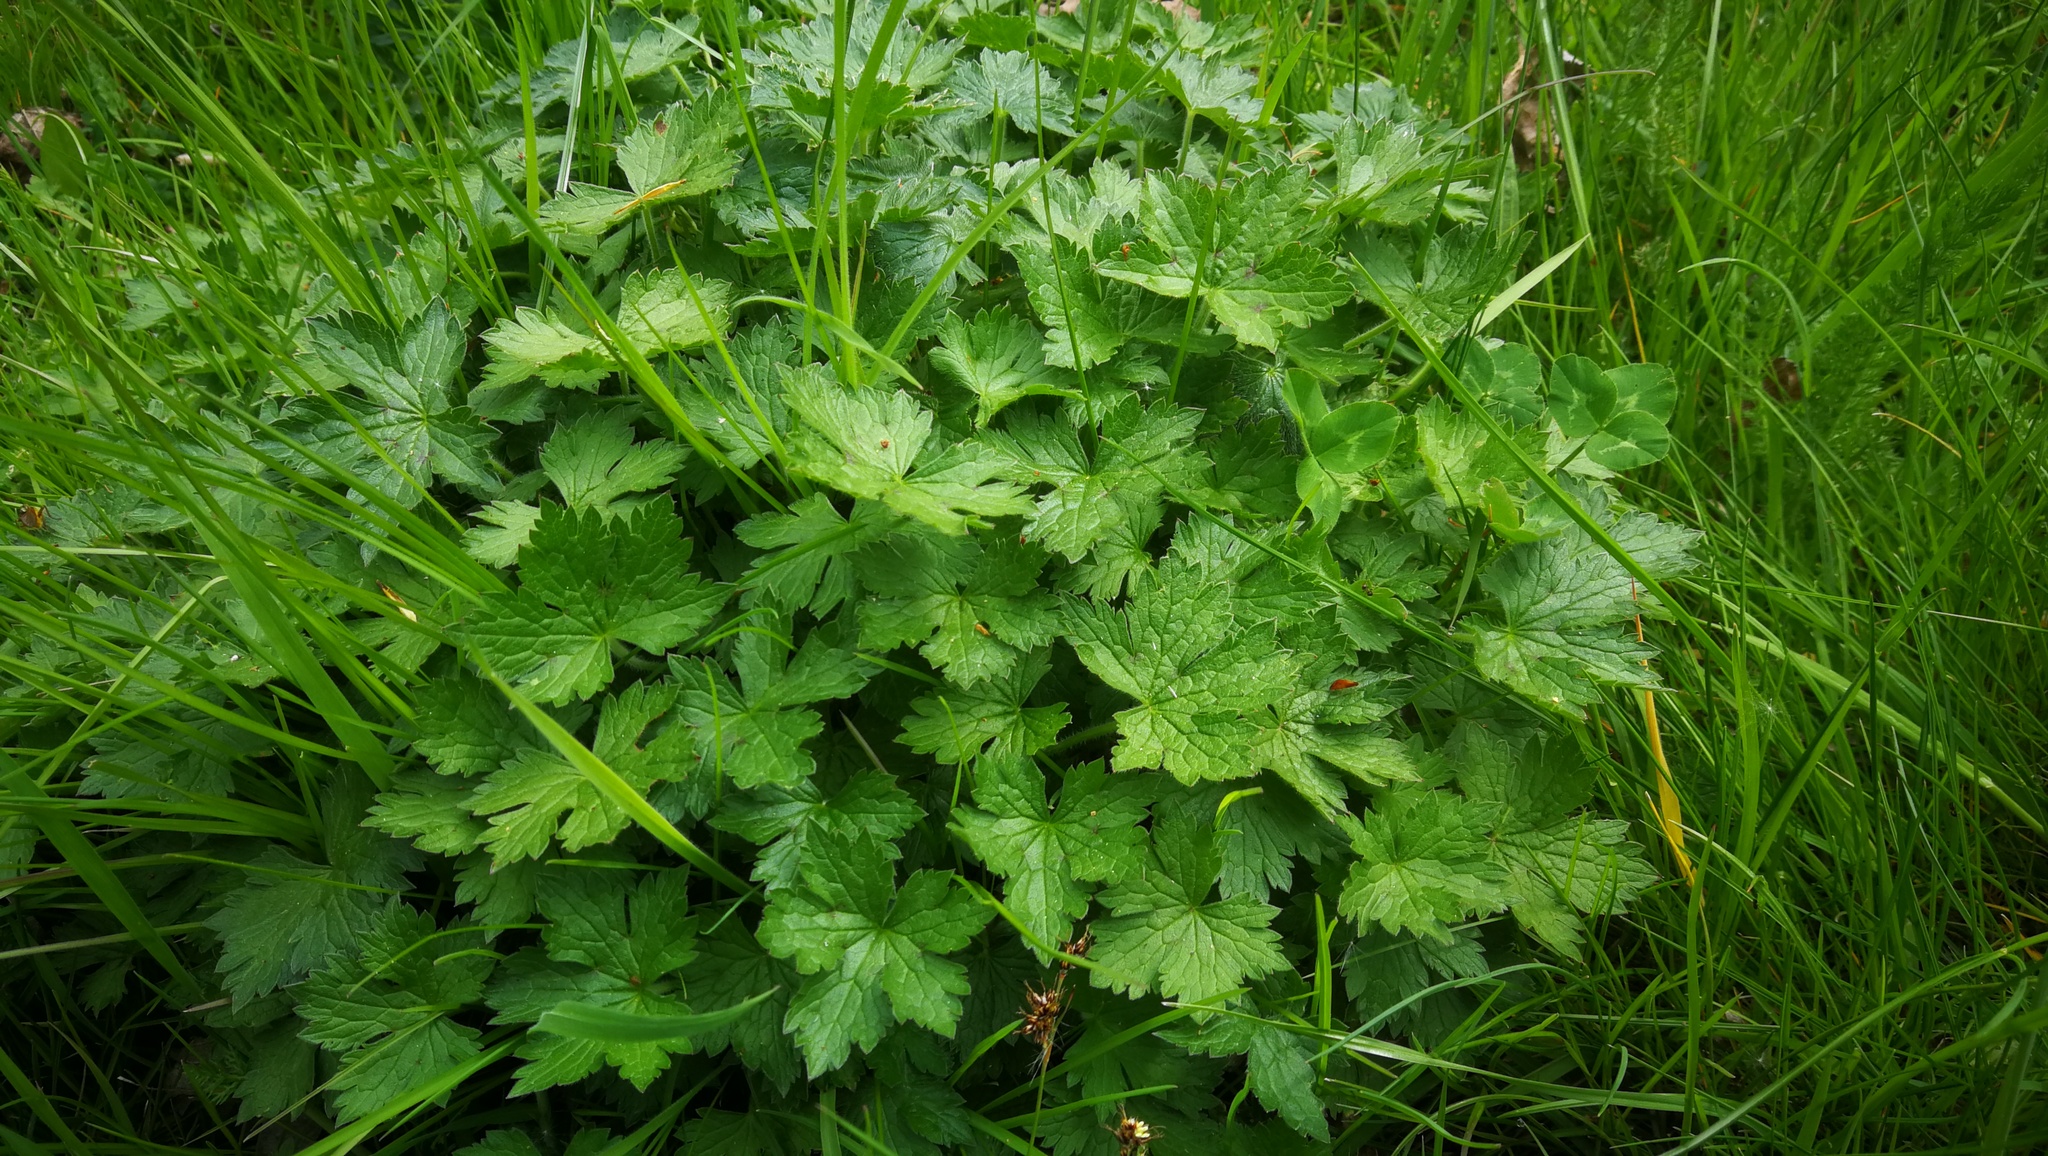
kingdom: Plantae
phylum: Tracheophyta
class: Magnoliopsida
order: Ranunculales
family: Ranunculaceae
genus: Ranunculus
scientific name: Ranunculus repens
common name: Creeping buttercup
